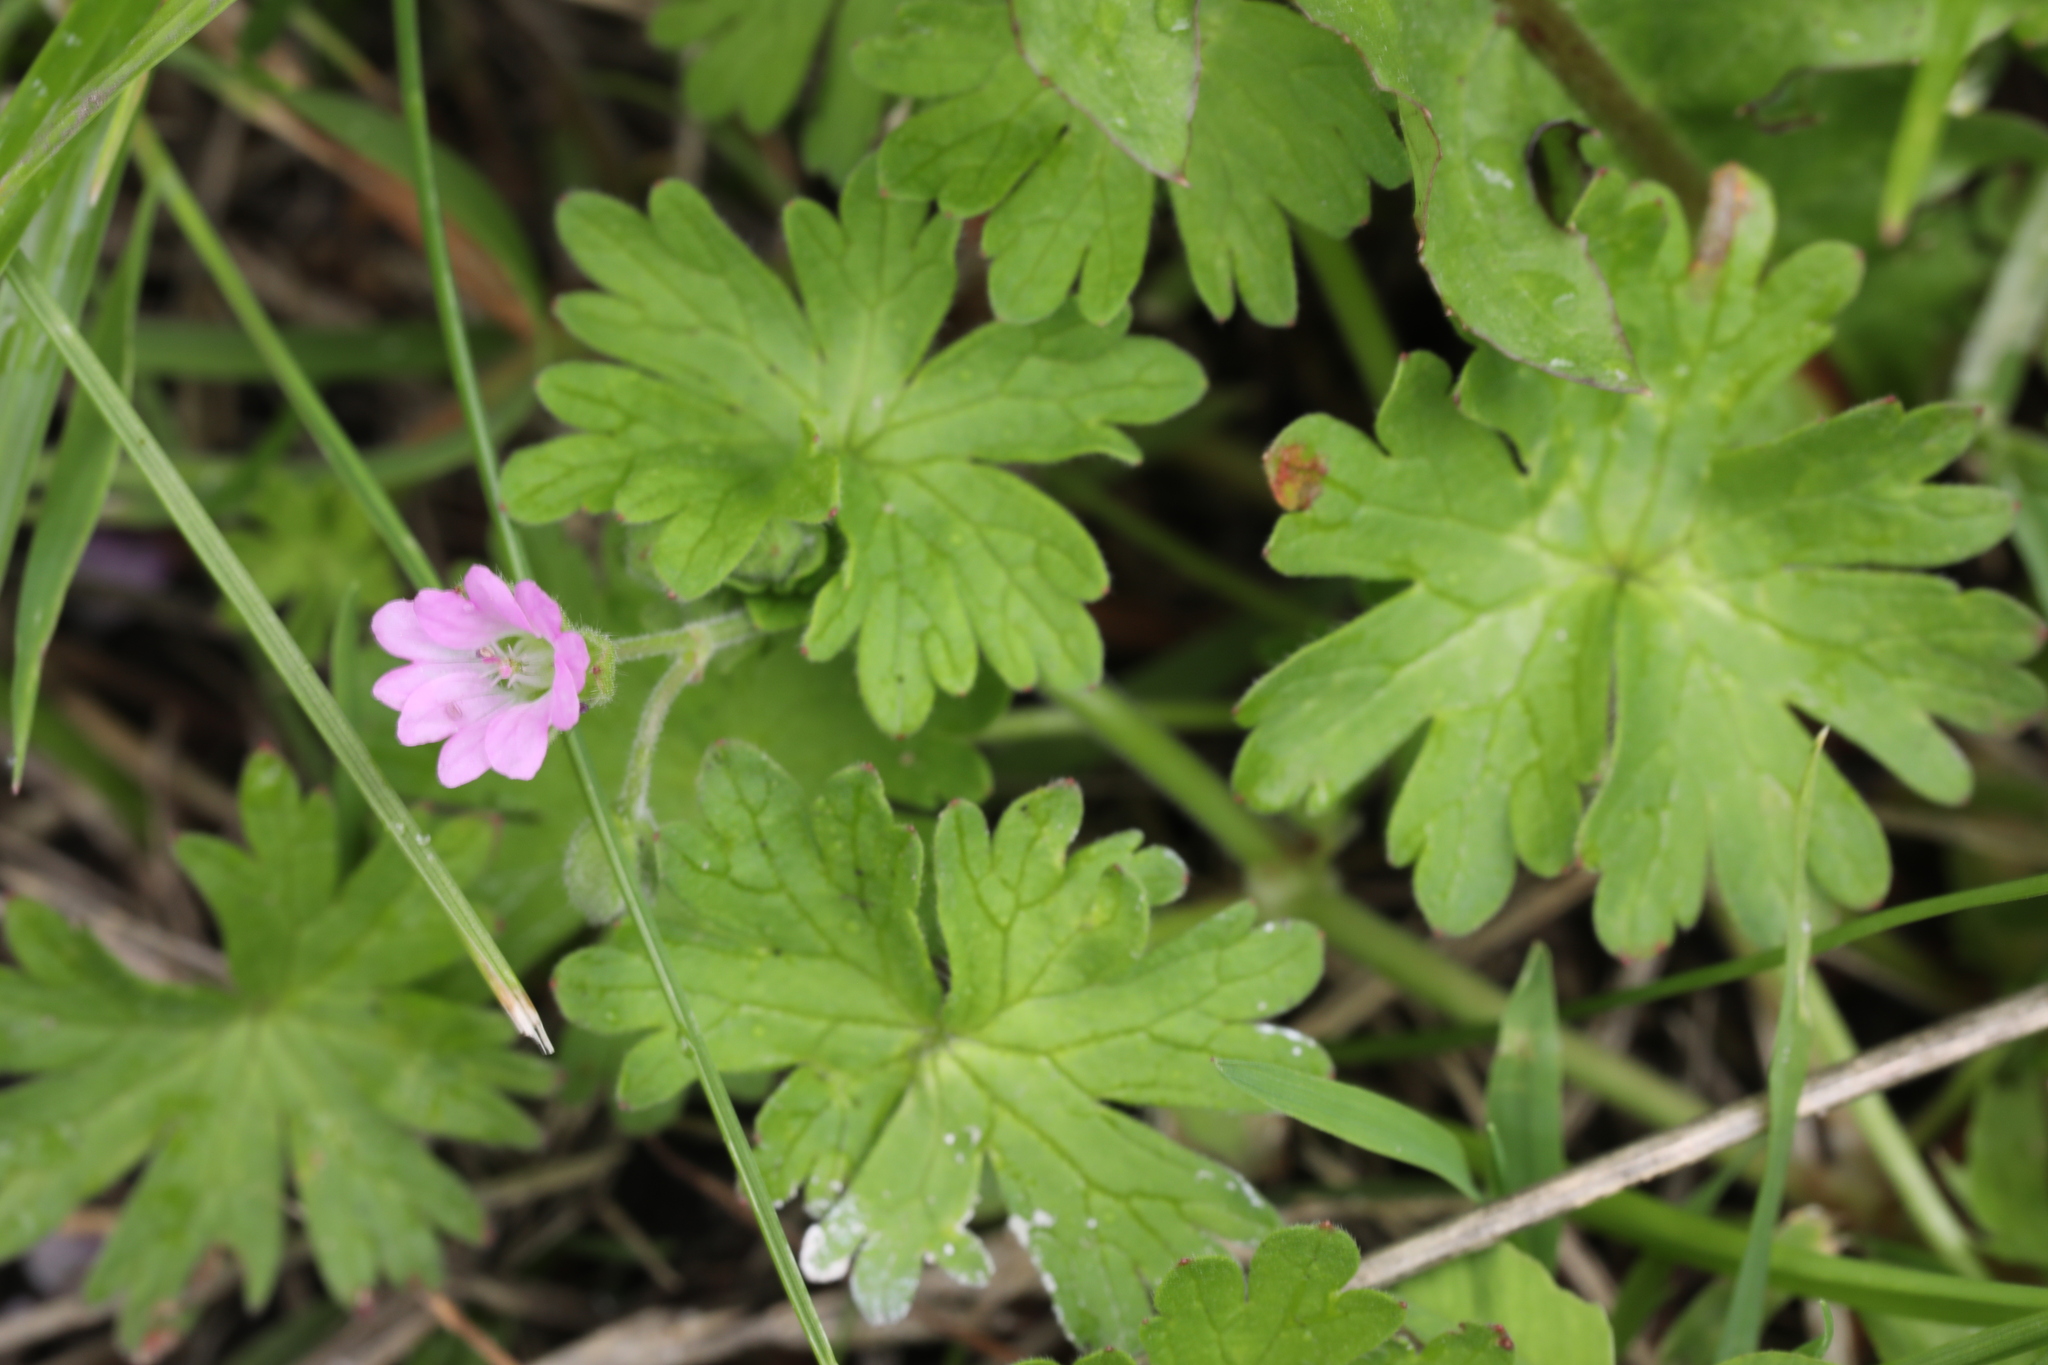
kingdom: Plantae
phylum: Tracheophyta
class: Magnoliopsida
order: Geraniales
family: Geraniaceae
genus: Geranium
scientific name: Geranium molle
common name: Dove's-foot crane's-bill
